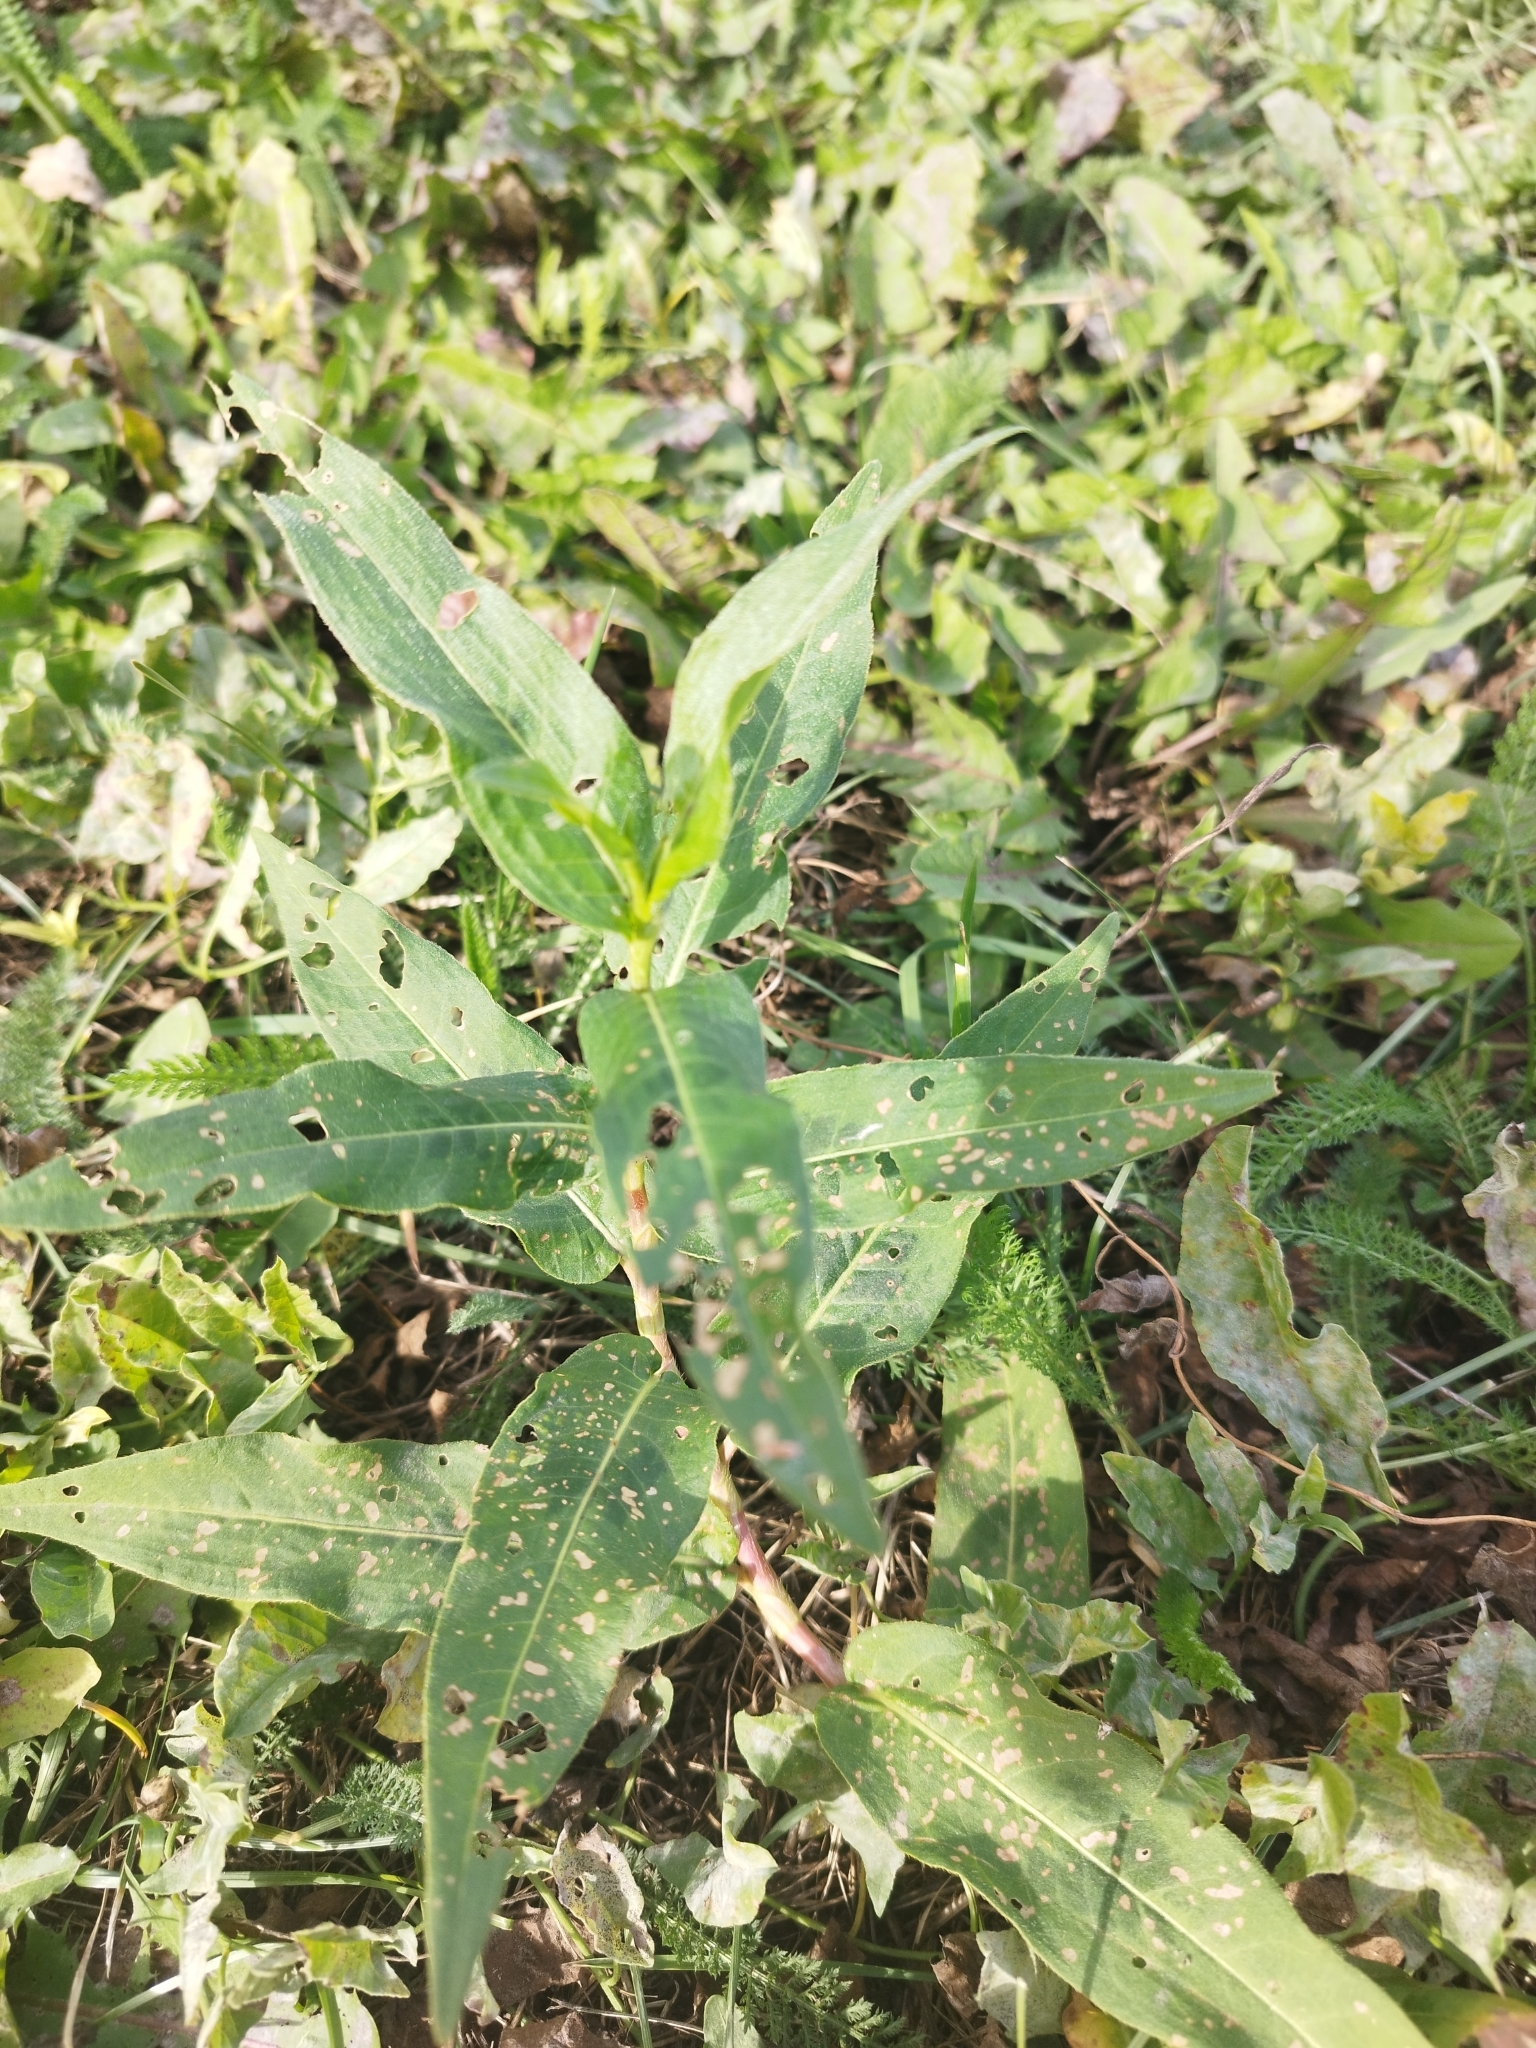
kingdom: Plantae
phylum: Tracheophyta
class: Magnoliopsida
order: Caryophyllales
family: Polygonaceae
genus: Persicaria
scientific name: Persicaria amphibia
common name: Amphibious bistort
